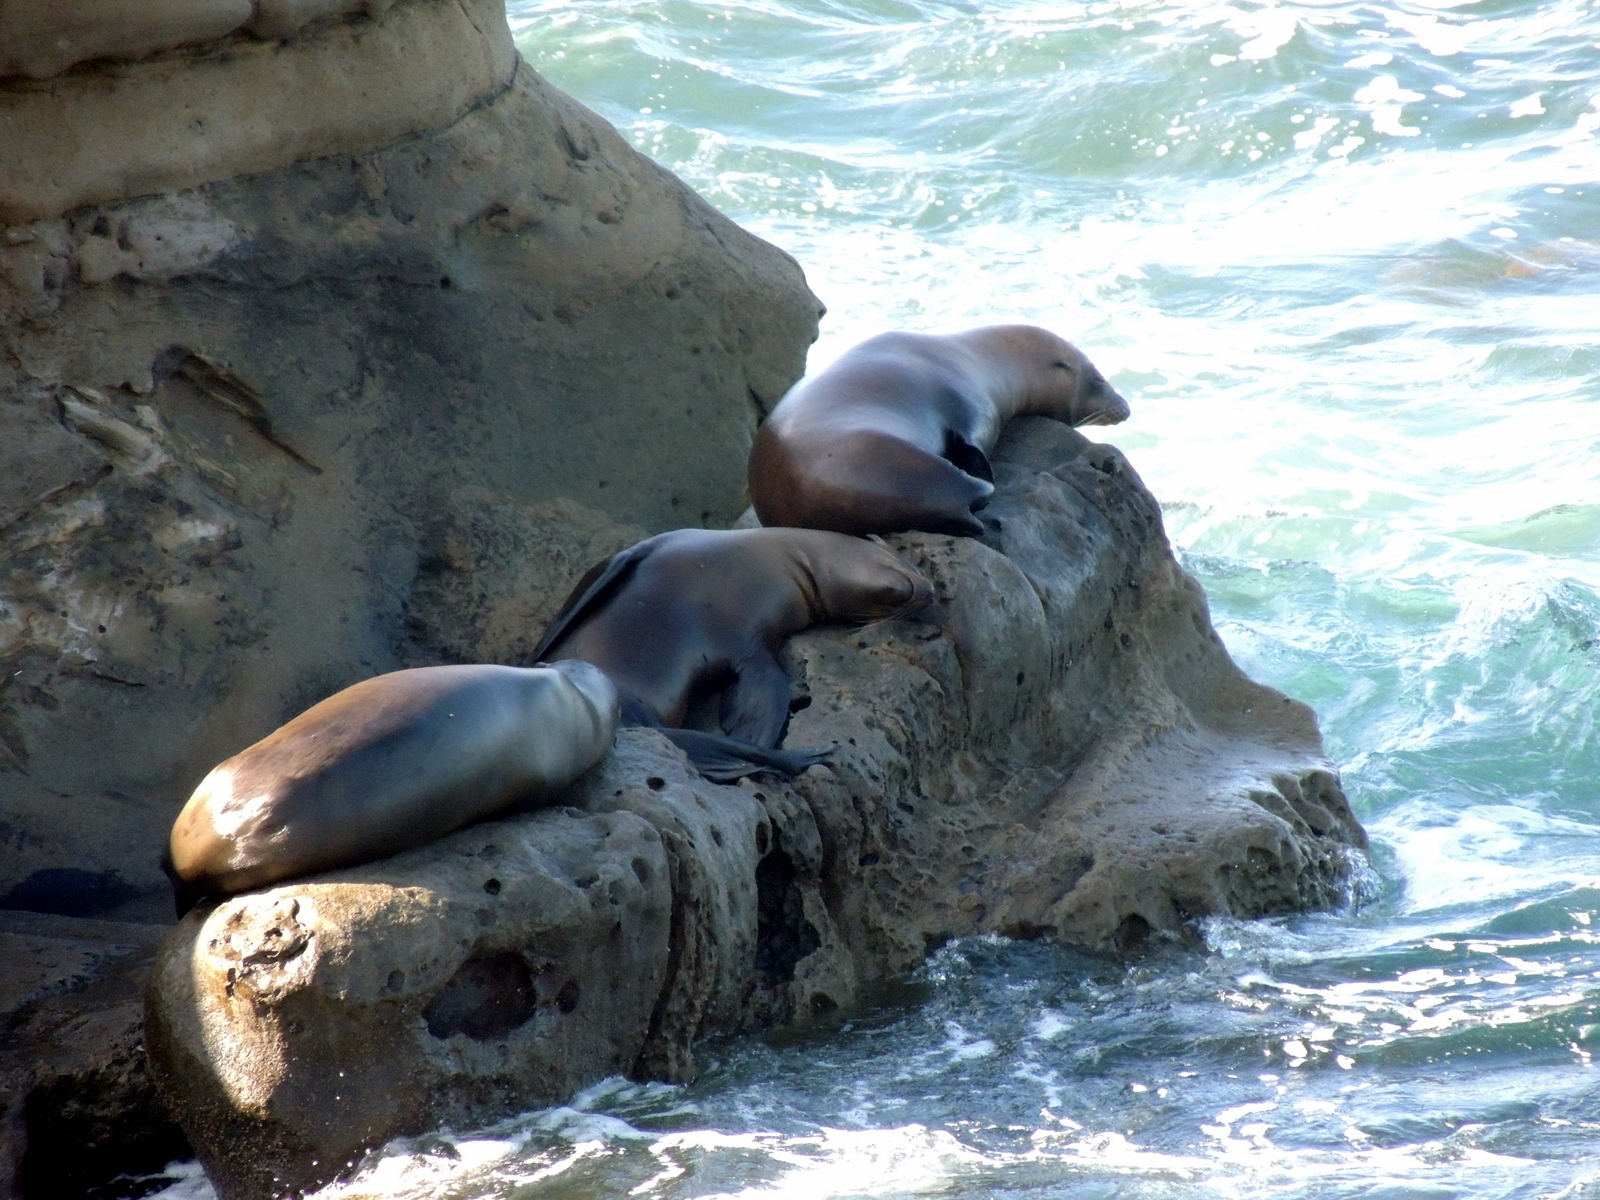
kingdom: Animalia
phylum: Chordata
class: Mammalia
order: Carnivora
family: Otariidae
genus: Zalophus
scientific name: Zalophus californianus
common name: California sea lion
